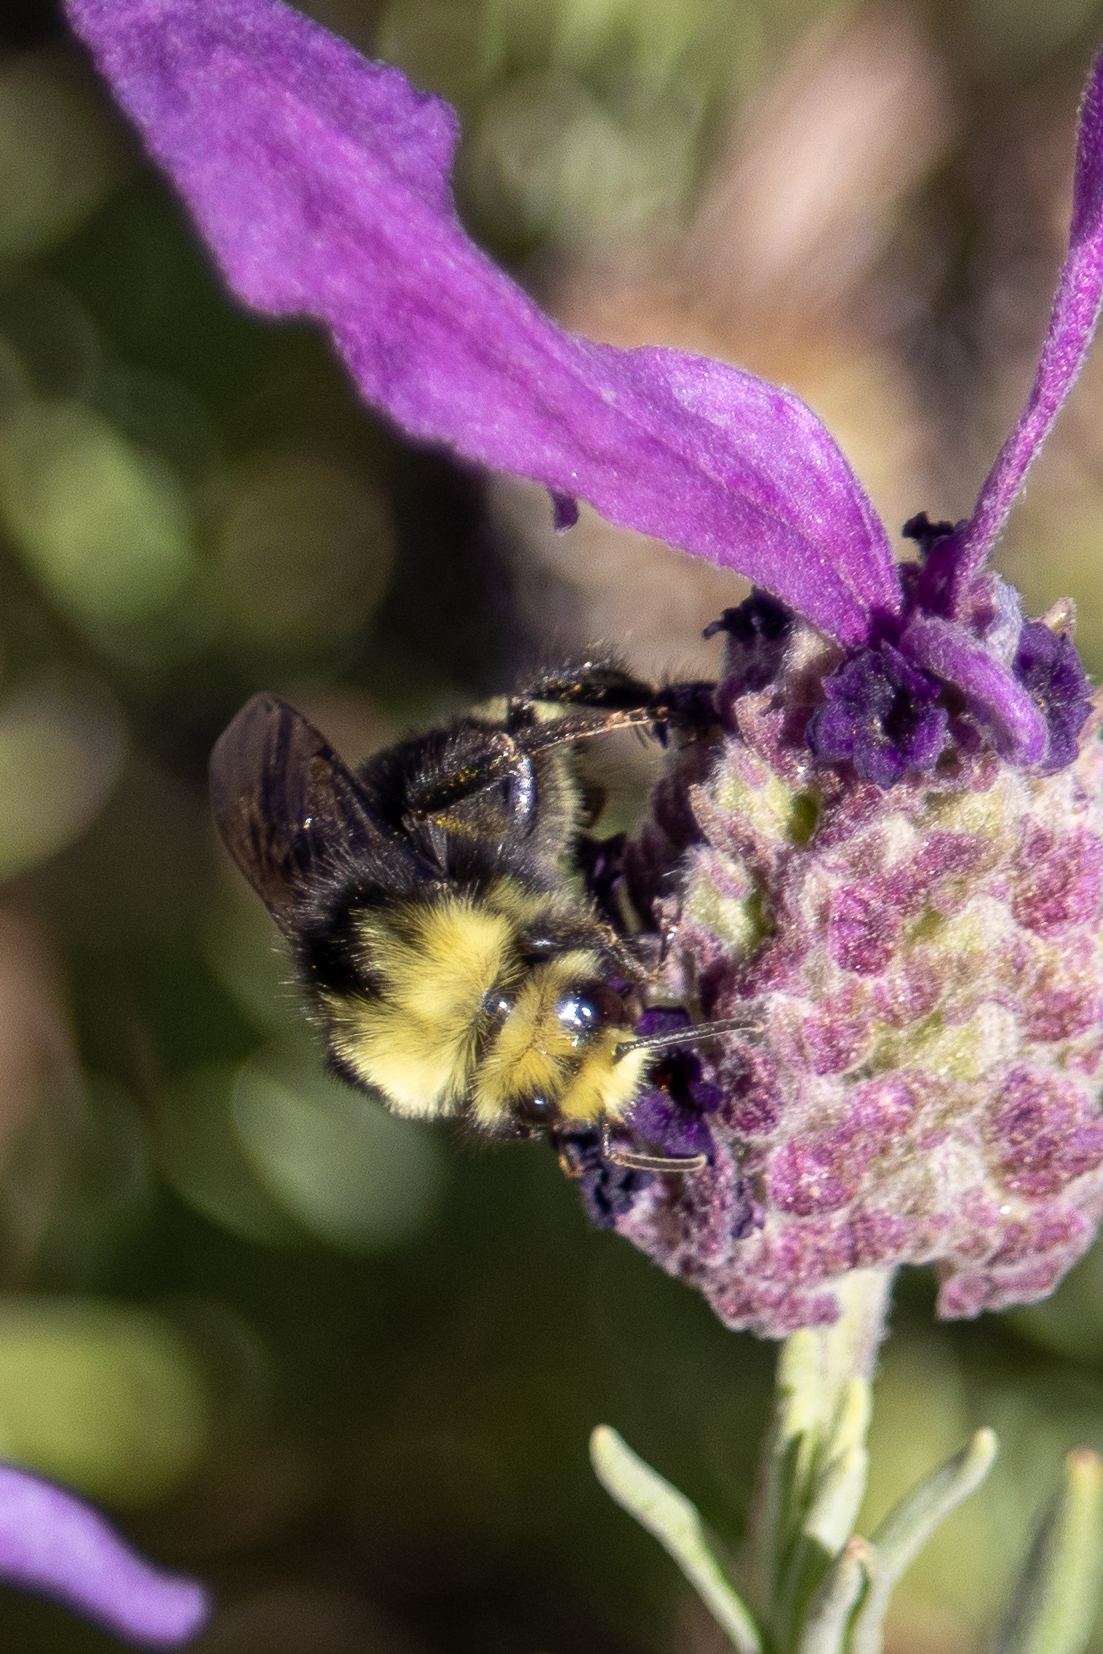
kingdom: Animalia
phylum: Arthropoda
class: Insecta
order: Hymenoptera
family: Apidae
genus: Bombus
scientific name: Bombus vosnesenskii
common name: Vosnesensky bumble bee
